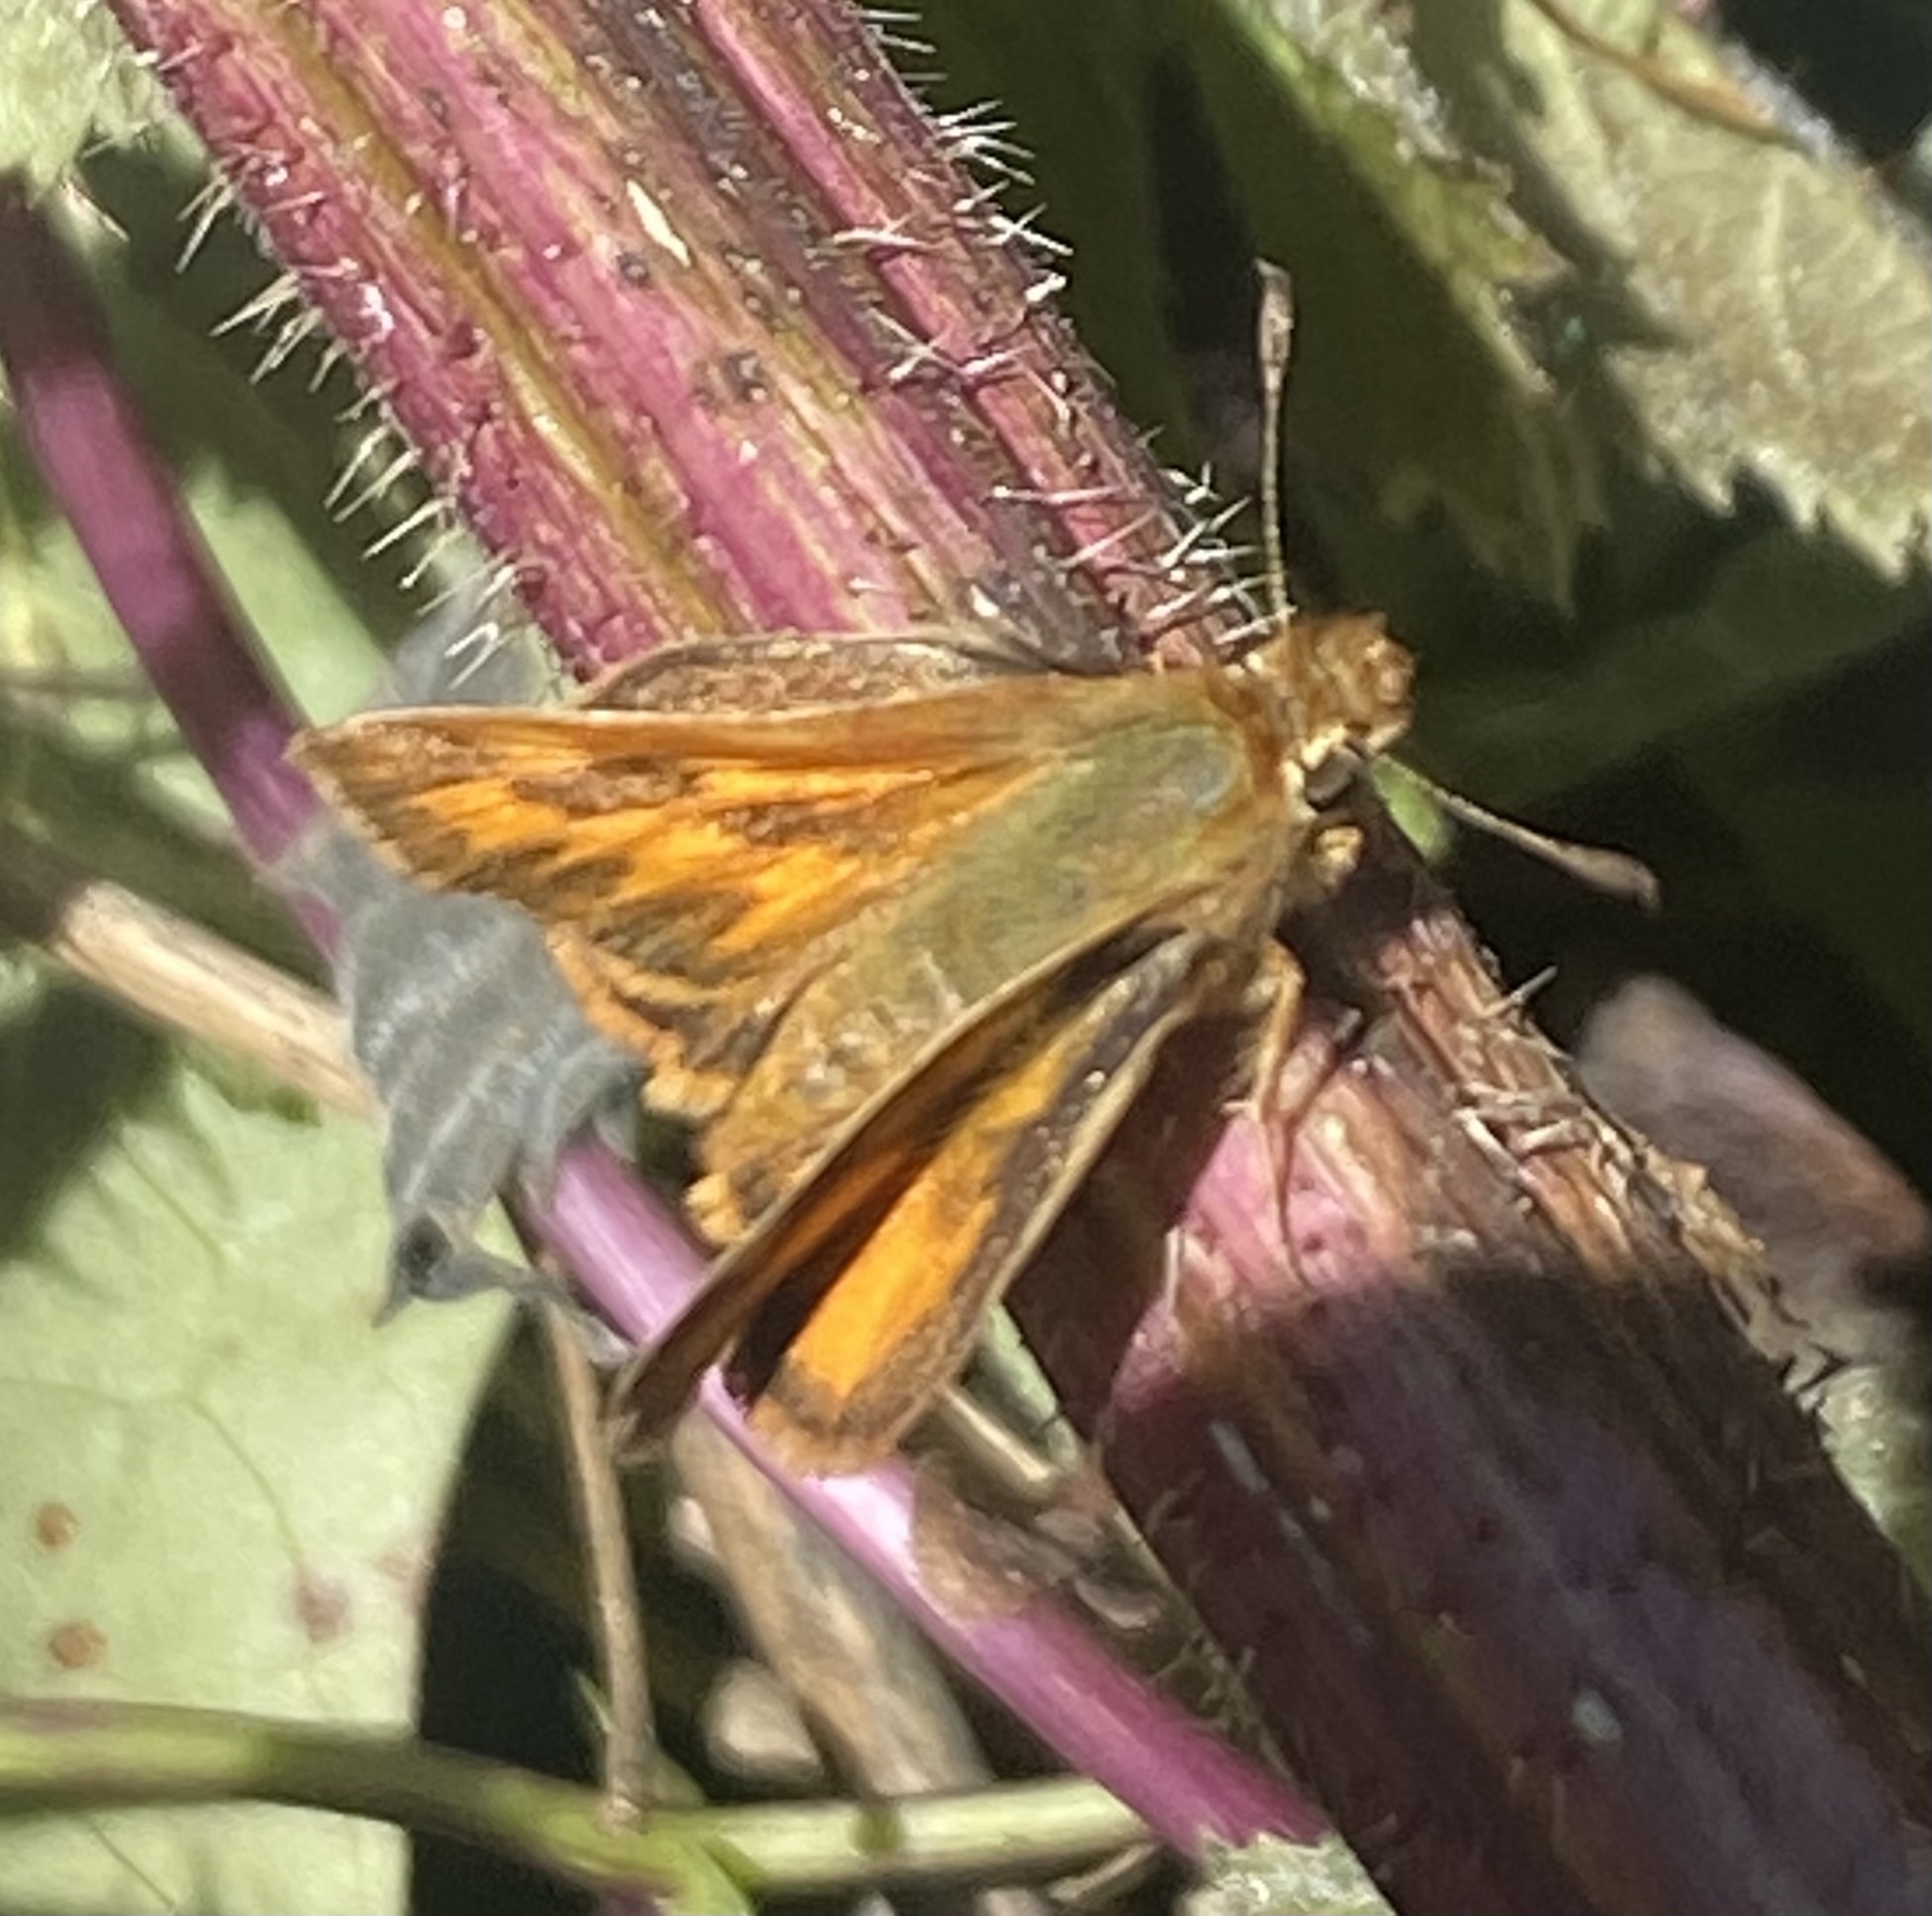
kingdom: Animalia
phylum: Arthropoda
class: Insecta
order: Lepidoptera
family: Hesperiidae
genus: Ochlodes
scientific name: Ochlodes sylvanoides
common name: Woodland skipper
